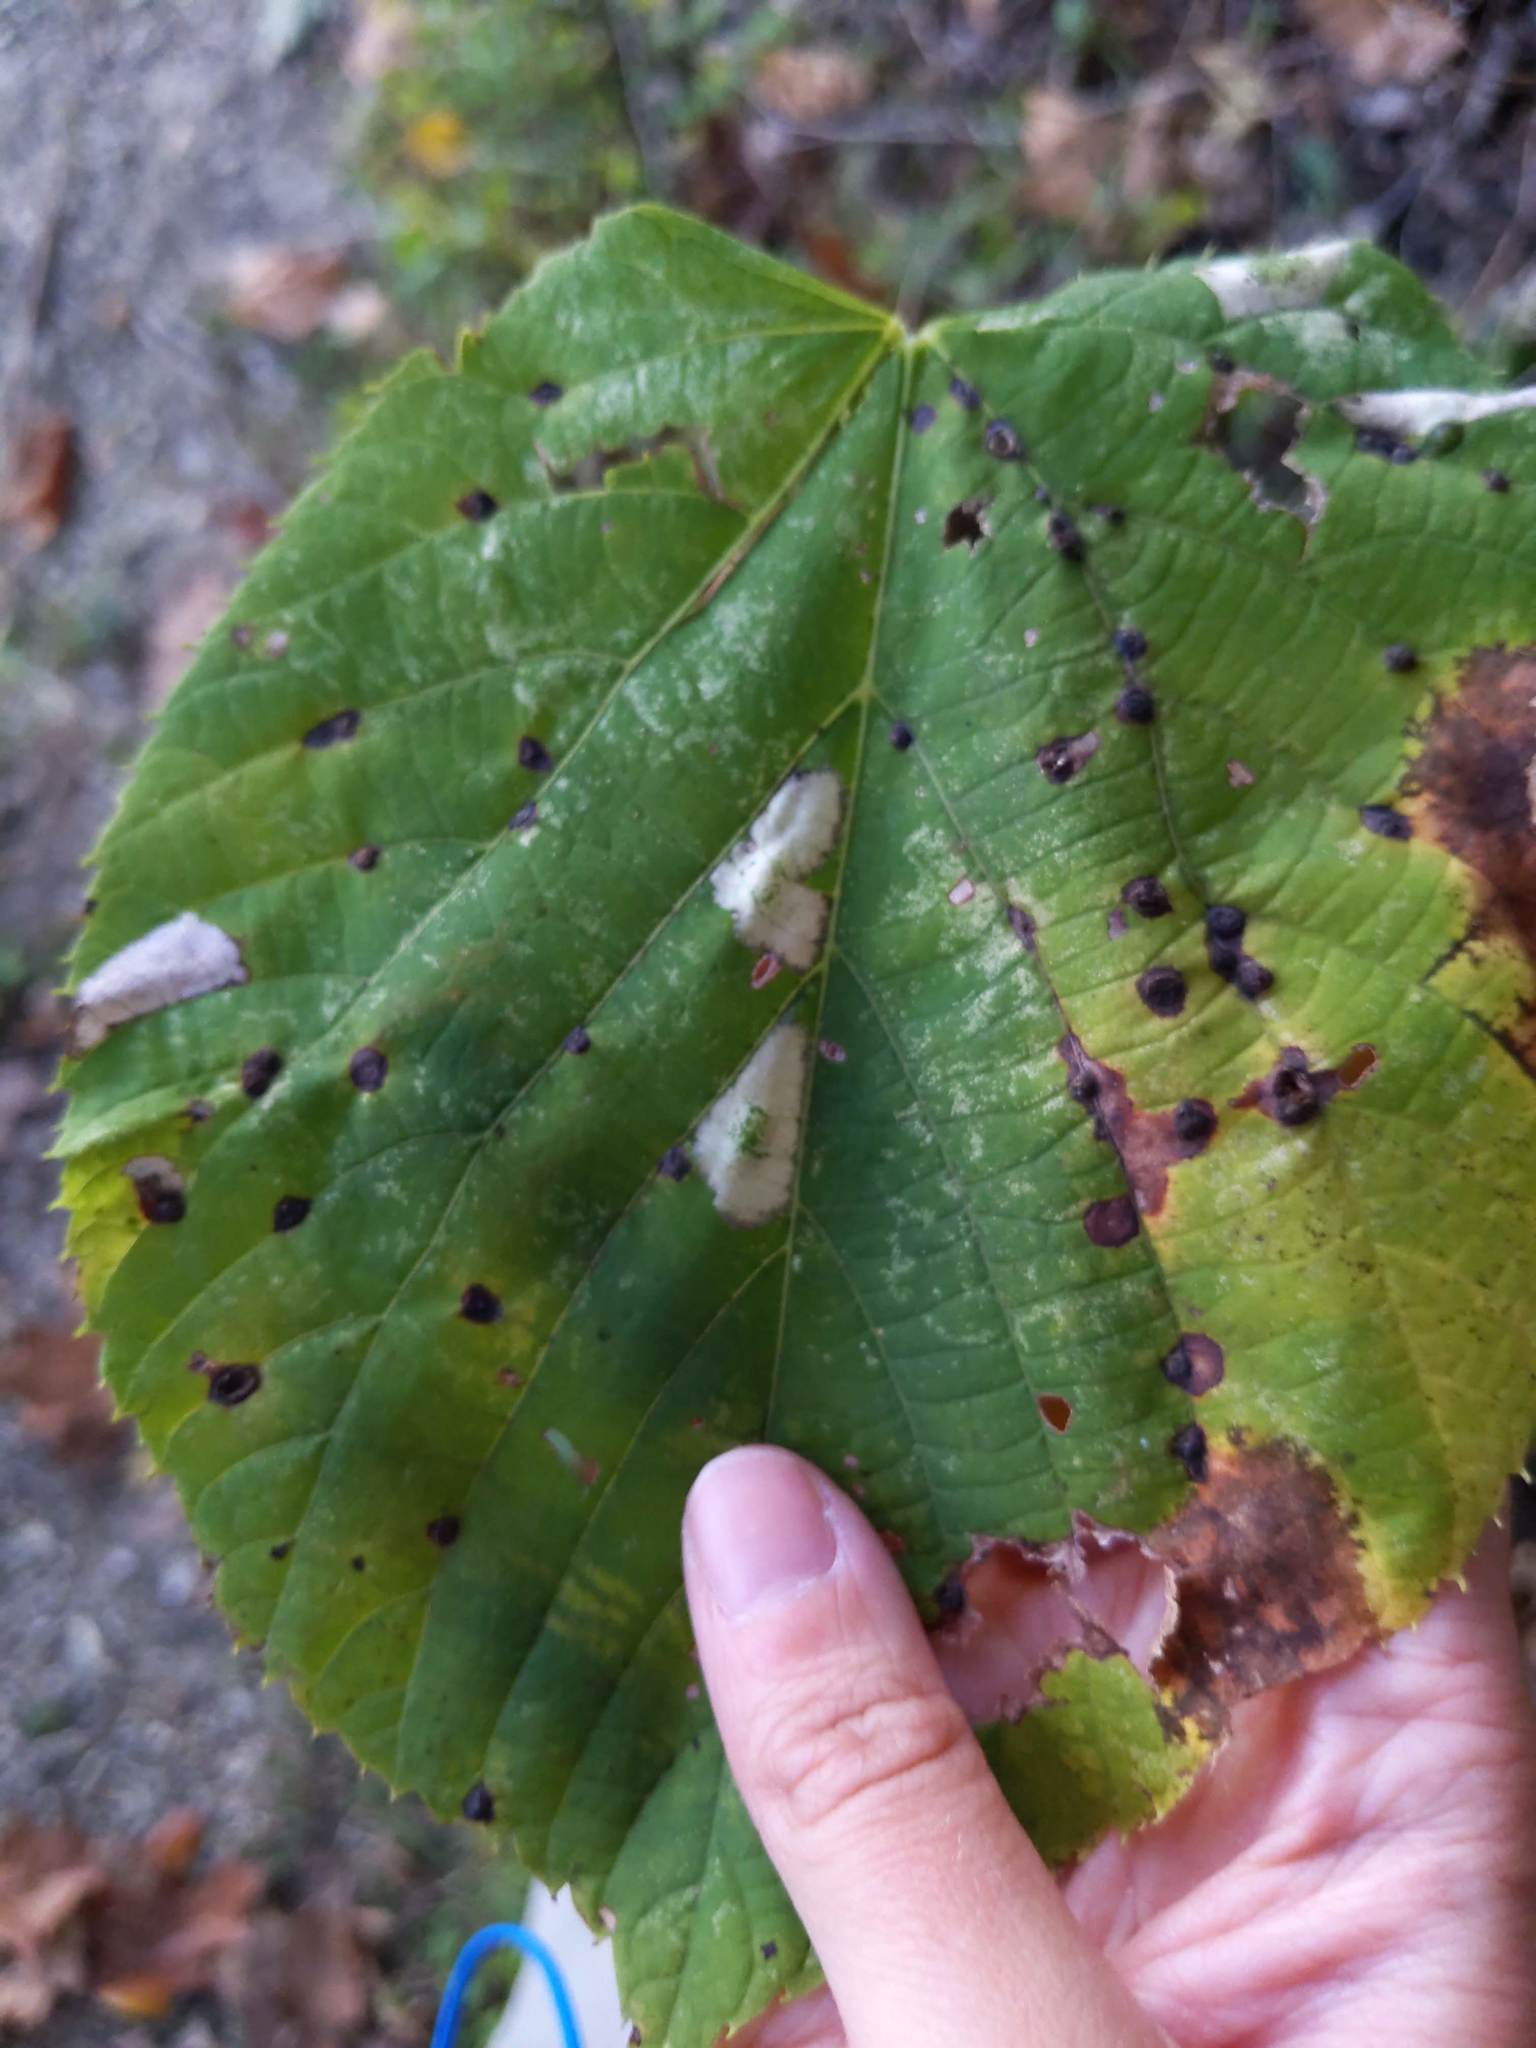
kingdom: Plantae
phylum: Tracheophyta
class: Magnoliopsida
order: Malvales
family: Malvaceae
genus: Tilia
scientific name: Tilia americana
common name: Basswood
